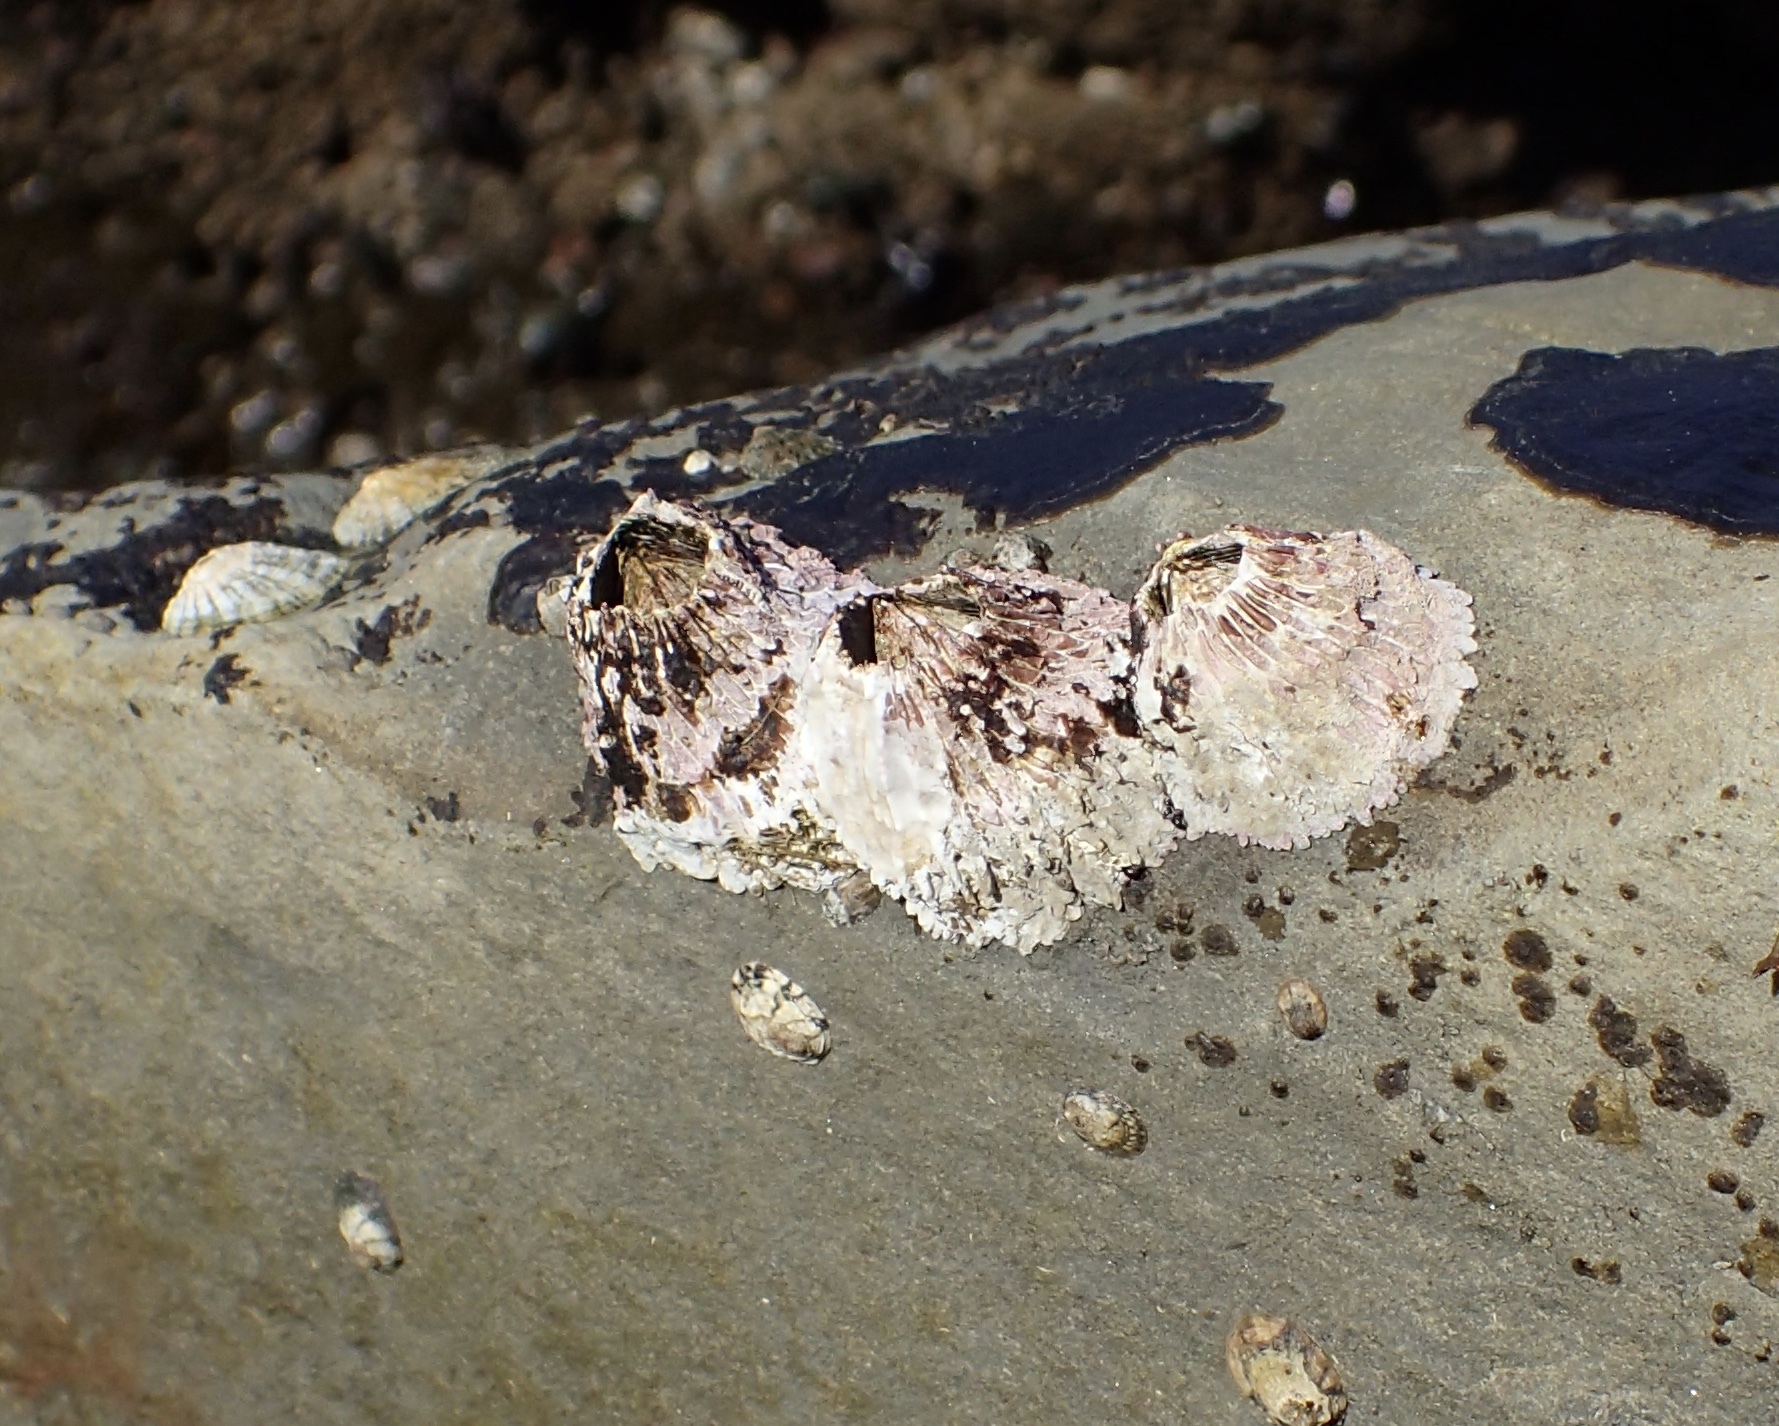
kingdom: Animalia
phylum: Arthropoda
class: Maxillopoda
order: Sessilia
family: Tetraclitidae
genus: Tetraclita
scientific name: Tetraclita rubescens
